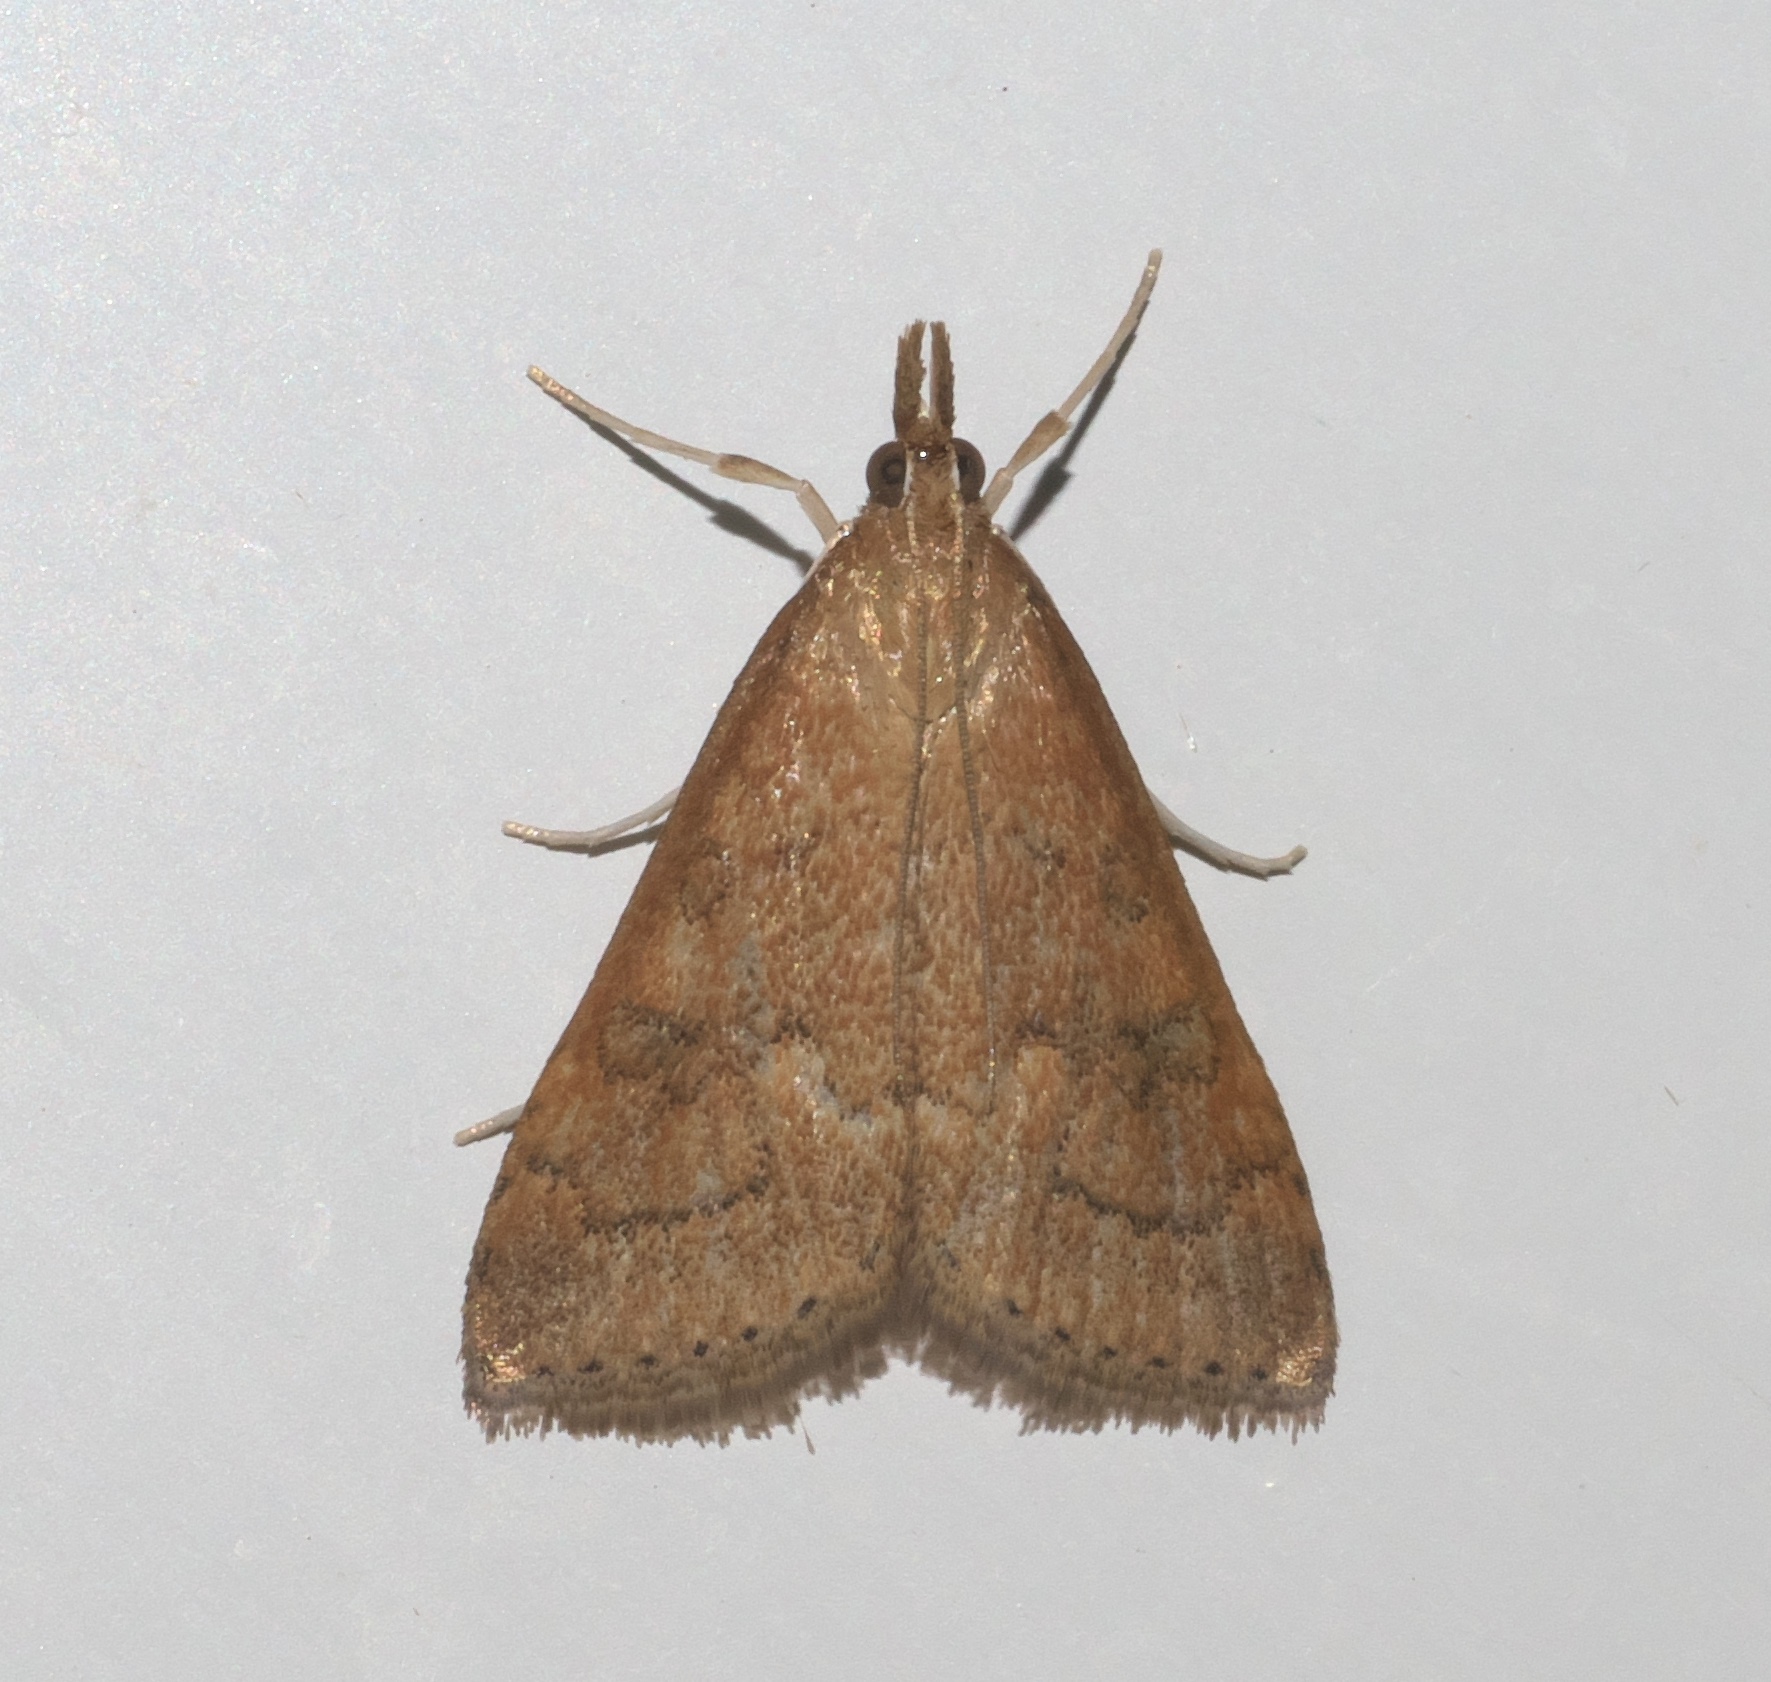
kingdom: Animalia
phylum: Arthropoda
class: Insecta
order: Lepidoptera
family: Crambidae
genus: Udea
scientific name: Udea rubigalis
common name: Celery leaftier moth
